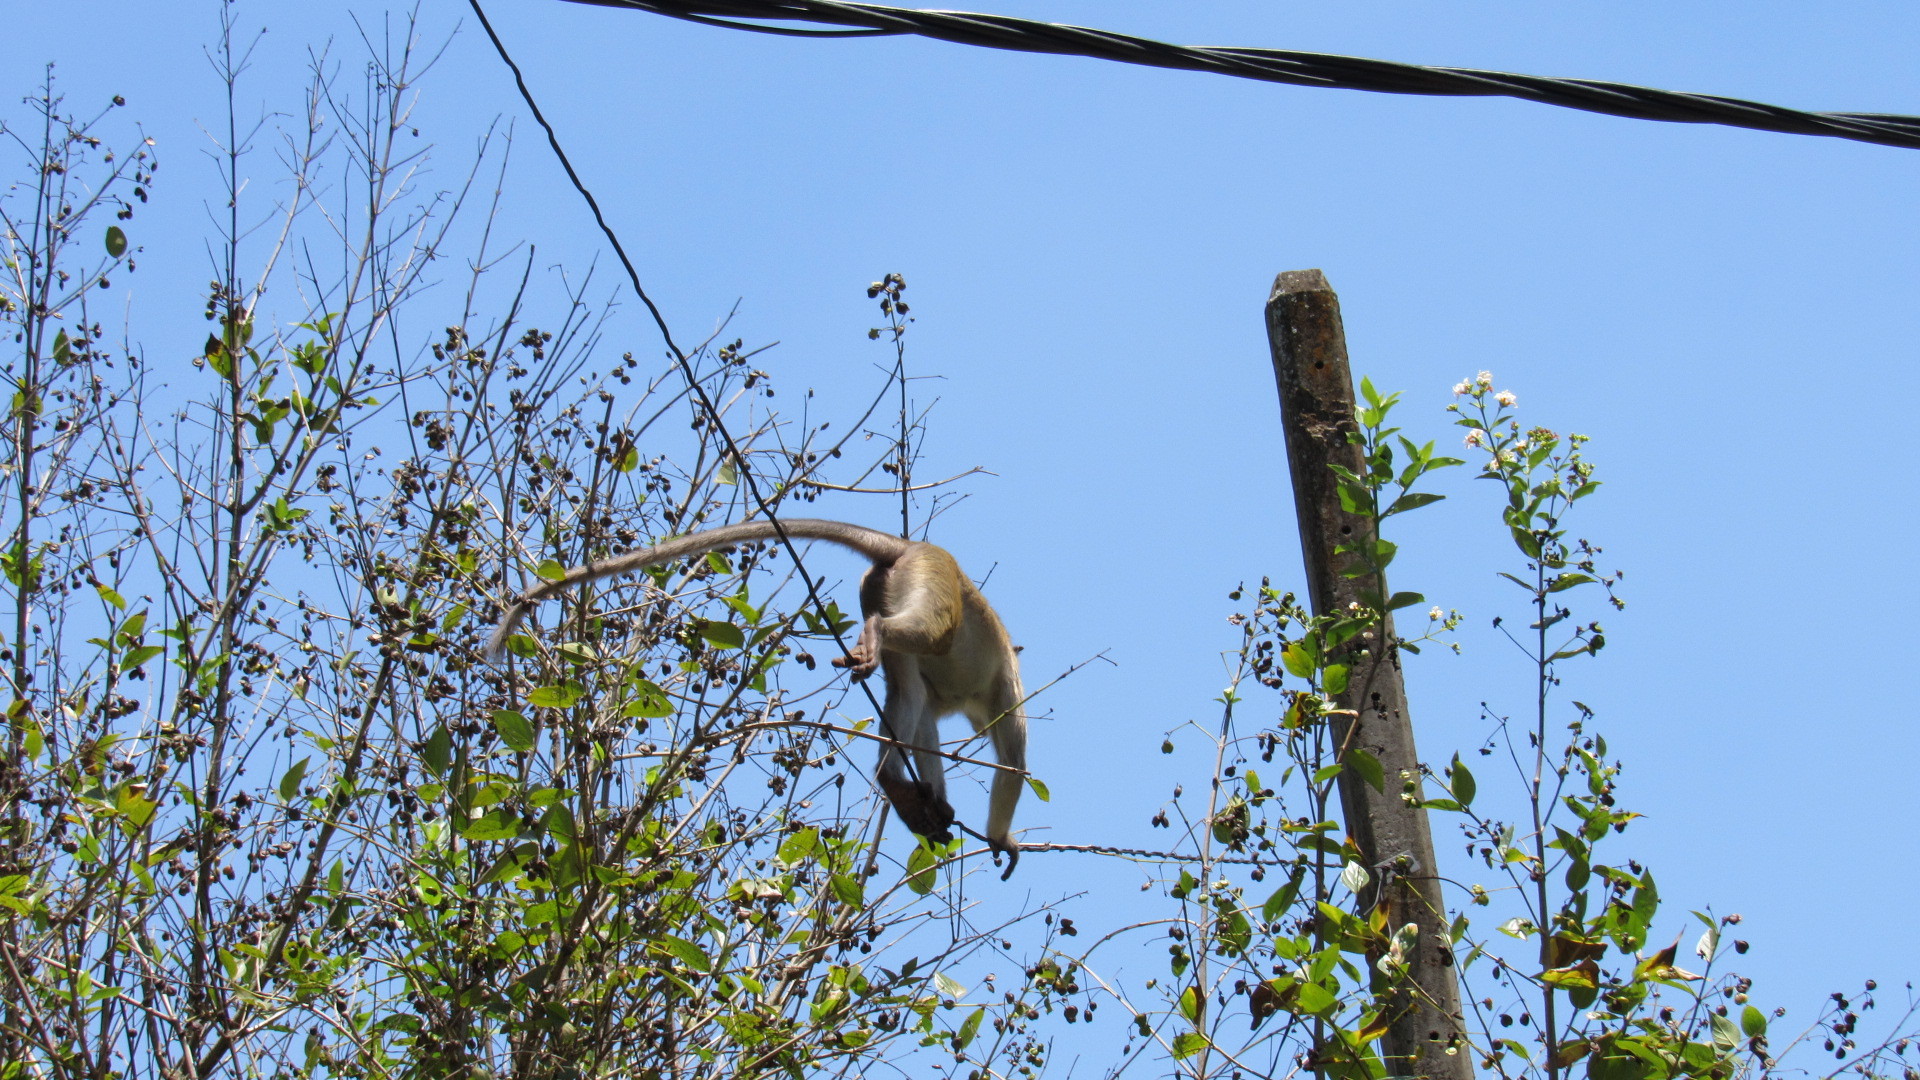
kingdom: Animalia
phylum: Chordata
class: Mammalia
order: Primates
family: Cercopithecidae
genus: Macaca
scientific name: Macaca sinica
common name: Toque macaque
